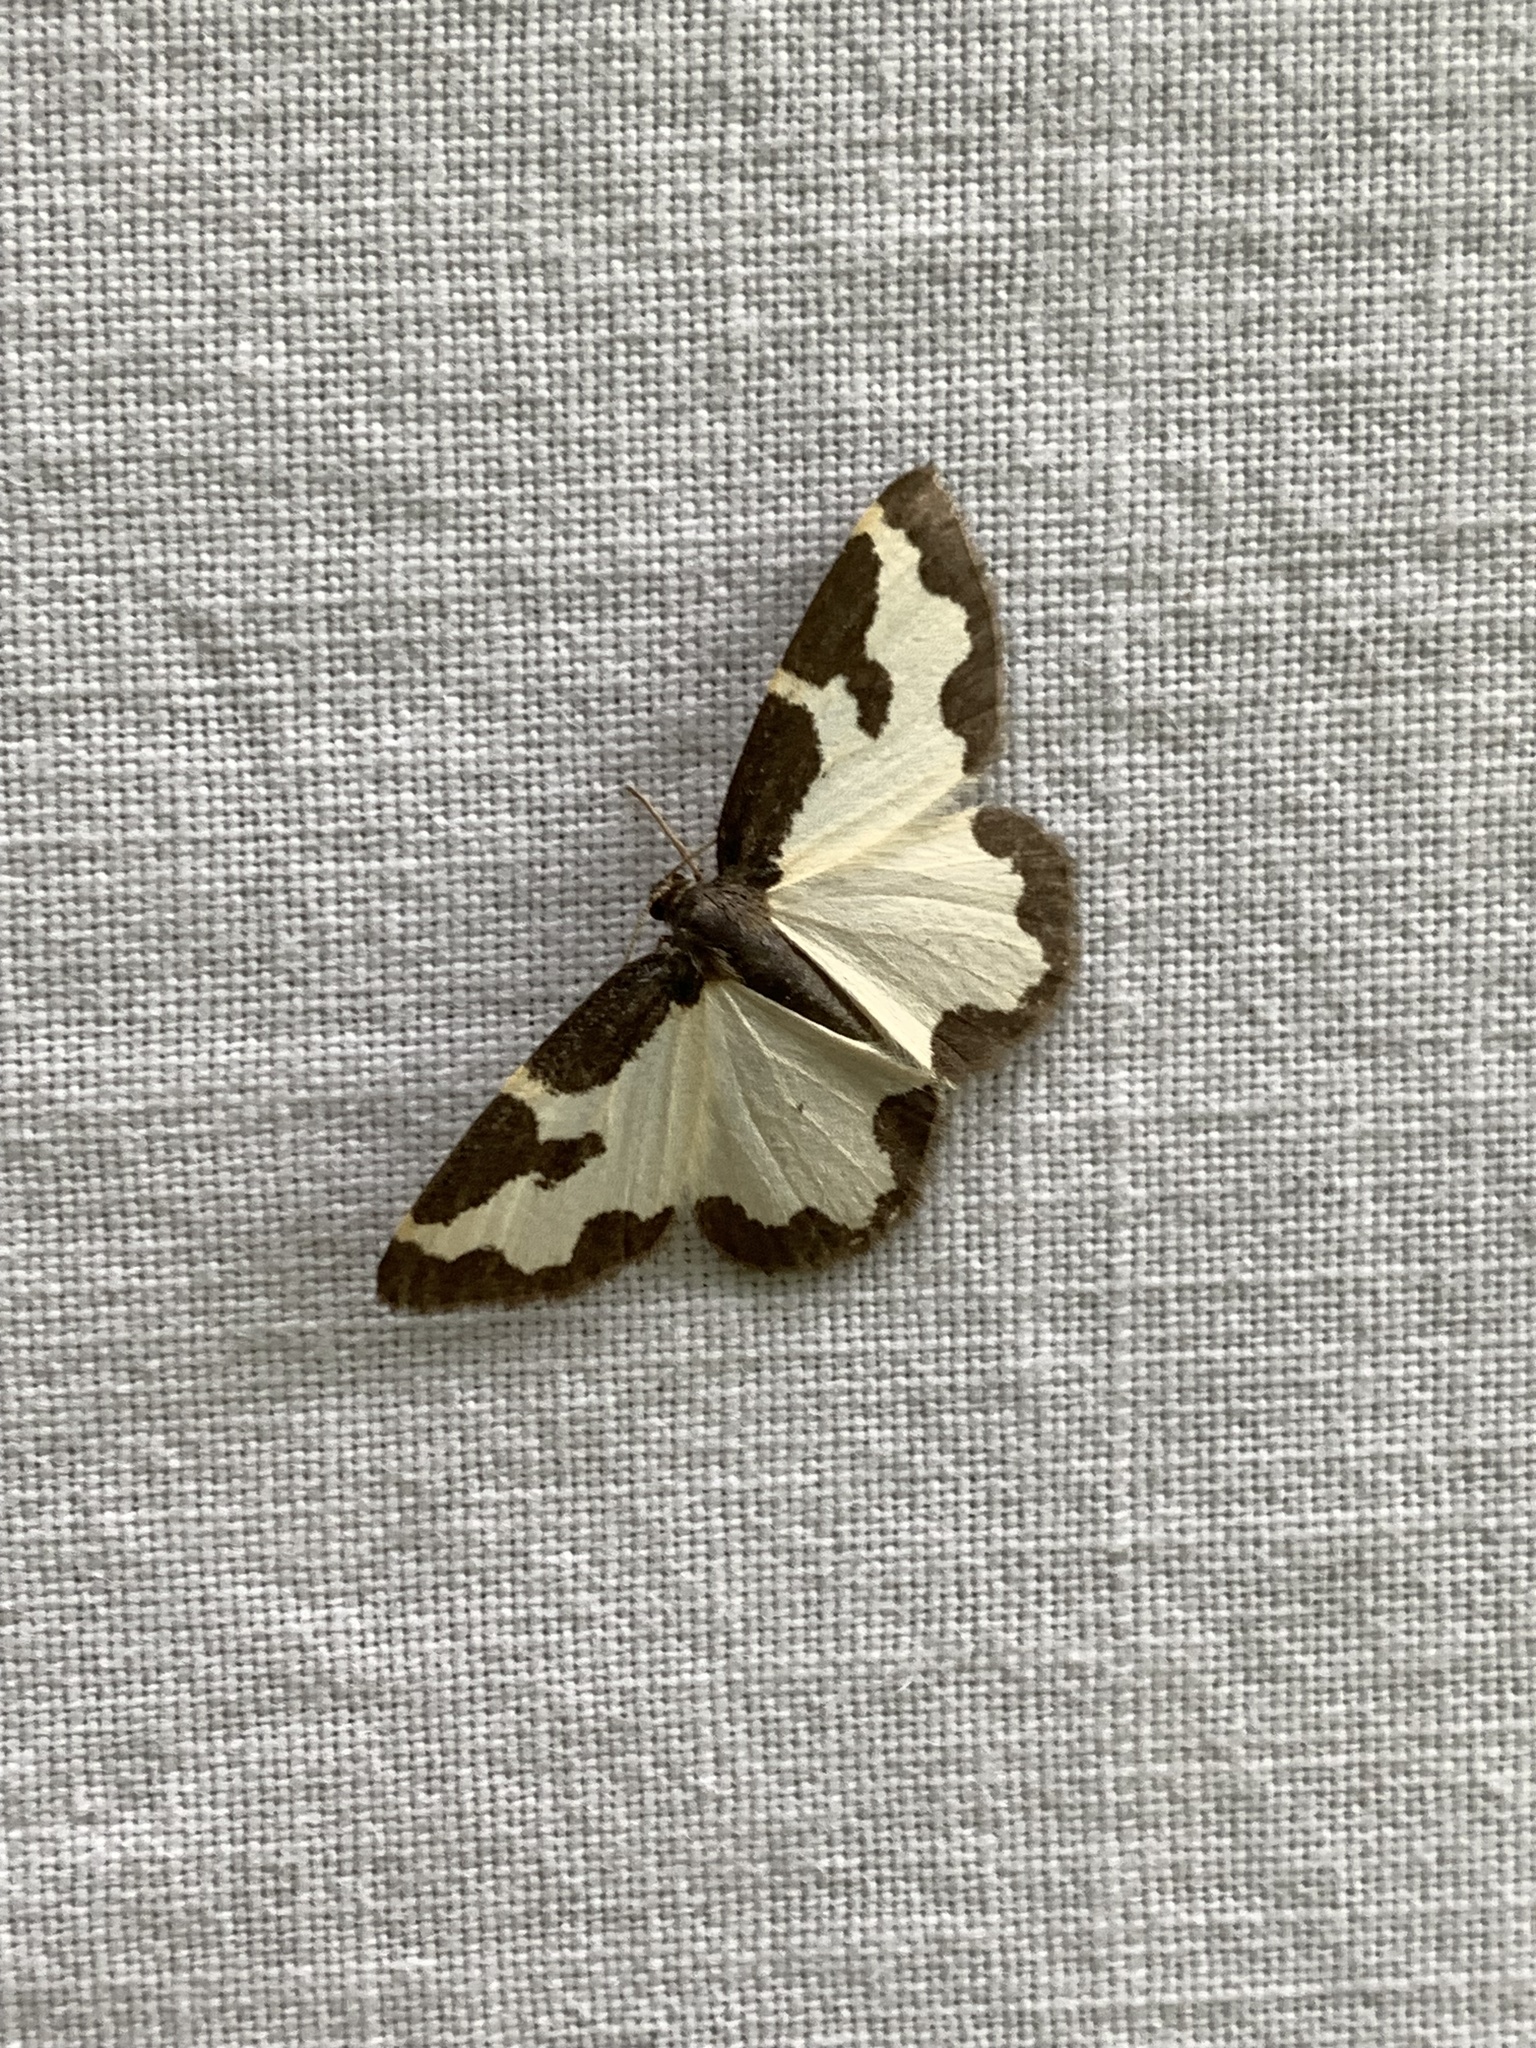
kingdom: Animalia
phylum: Arthropoda
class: Insecta
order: Lepidoptera
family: Geometridae
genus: Lomaspilis
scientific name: Lomaspilis marginata
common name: Clouded border
